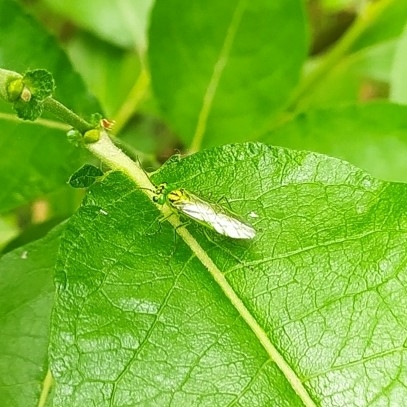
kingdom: Animalia
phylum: Arthropoda
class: Insecta
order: Hymenoptera
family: Tenthredinidae
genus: Rhogogaster
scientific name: Rhogogaster punctulata
